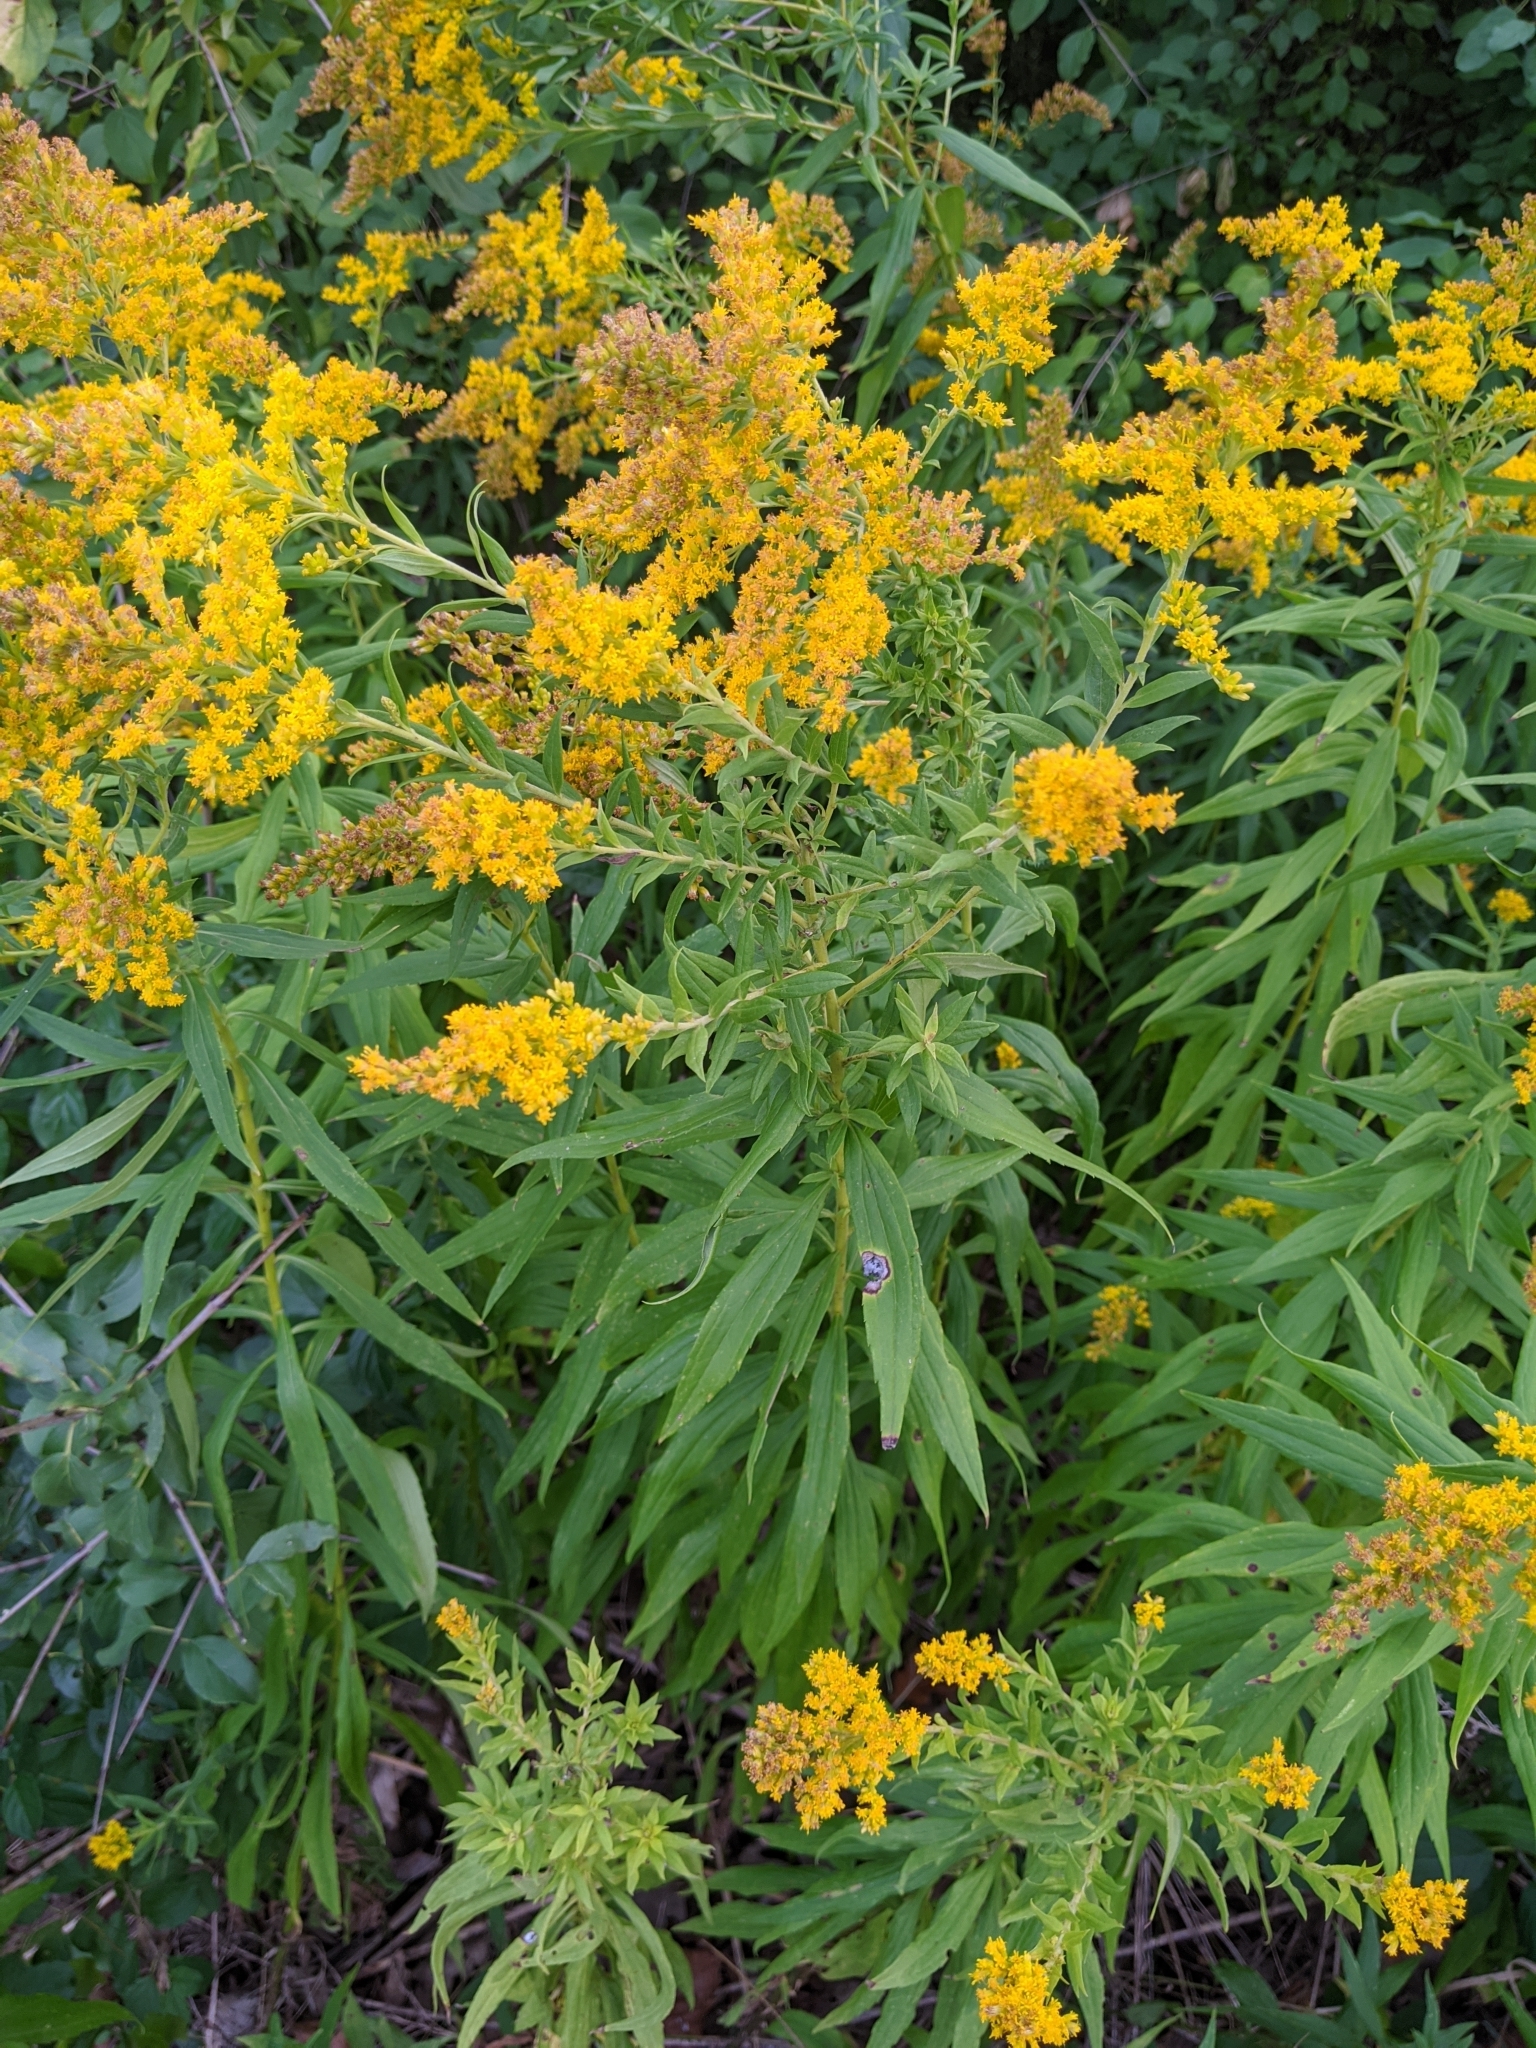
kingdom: Animalia
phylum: Arthropoda
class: Insecta
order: Diptera
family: Cecidomyiidae
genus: Asteromyia
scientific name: Asteromyia carbonifera
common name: Carbonifera goldenrod gall midge
